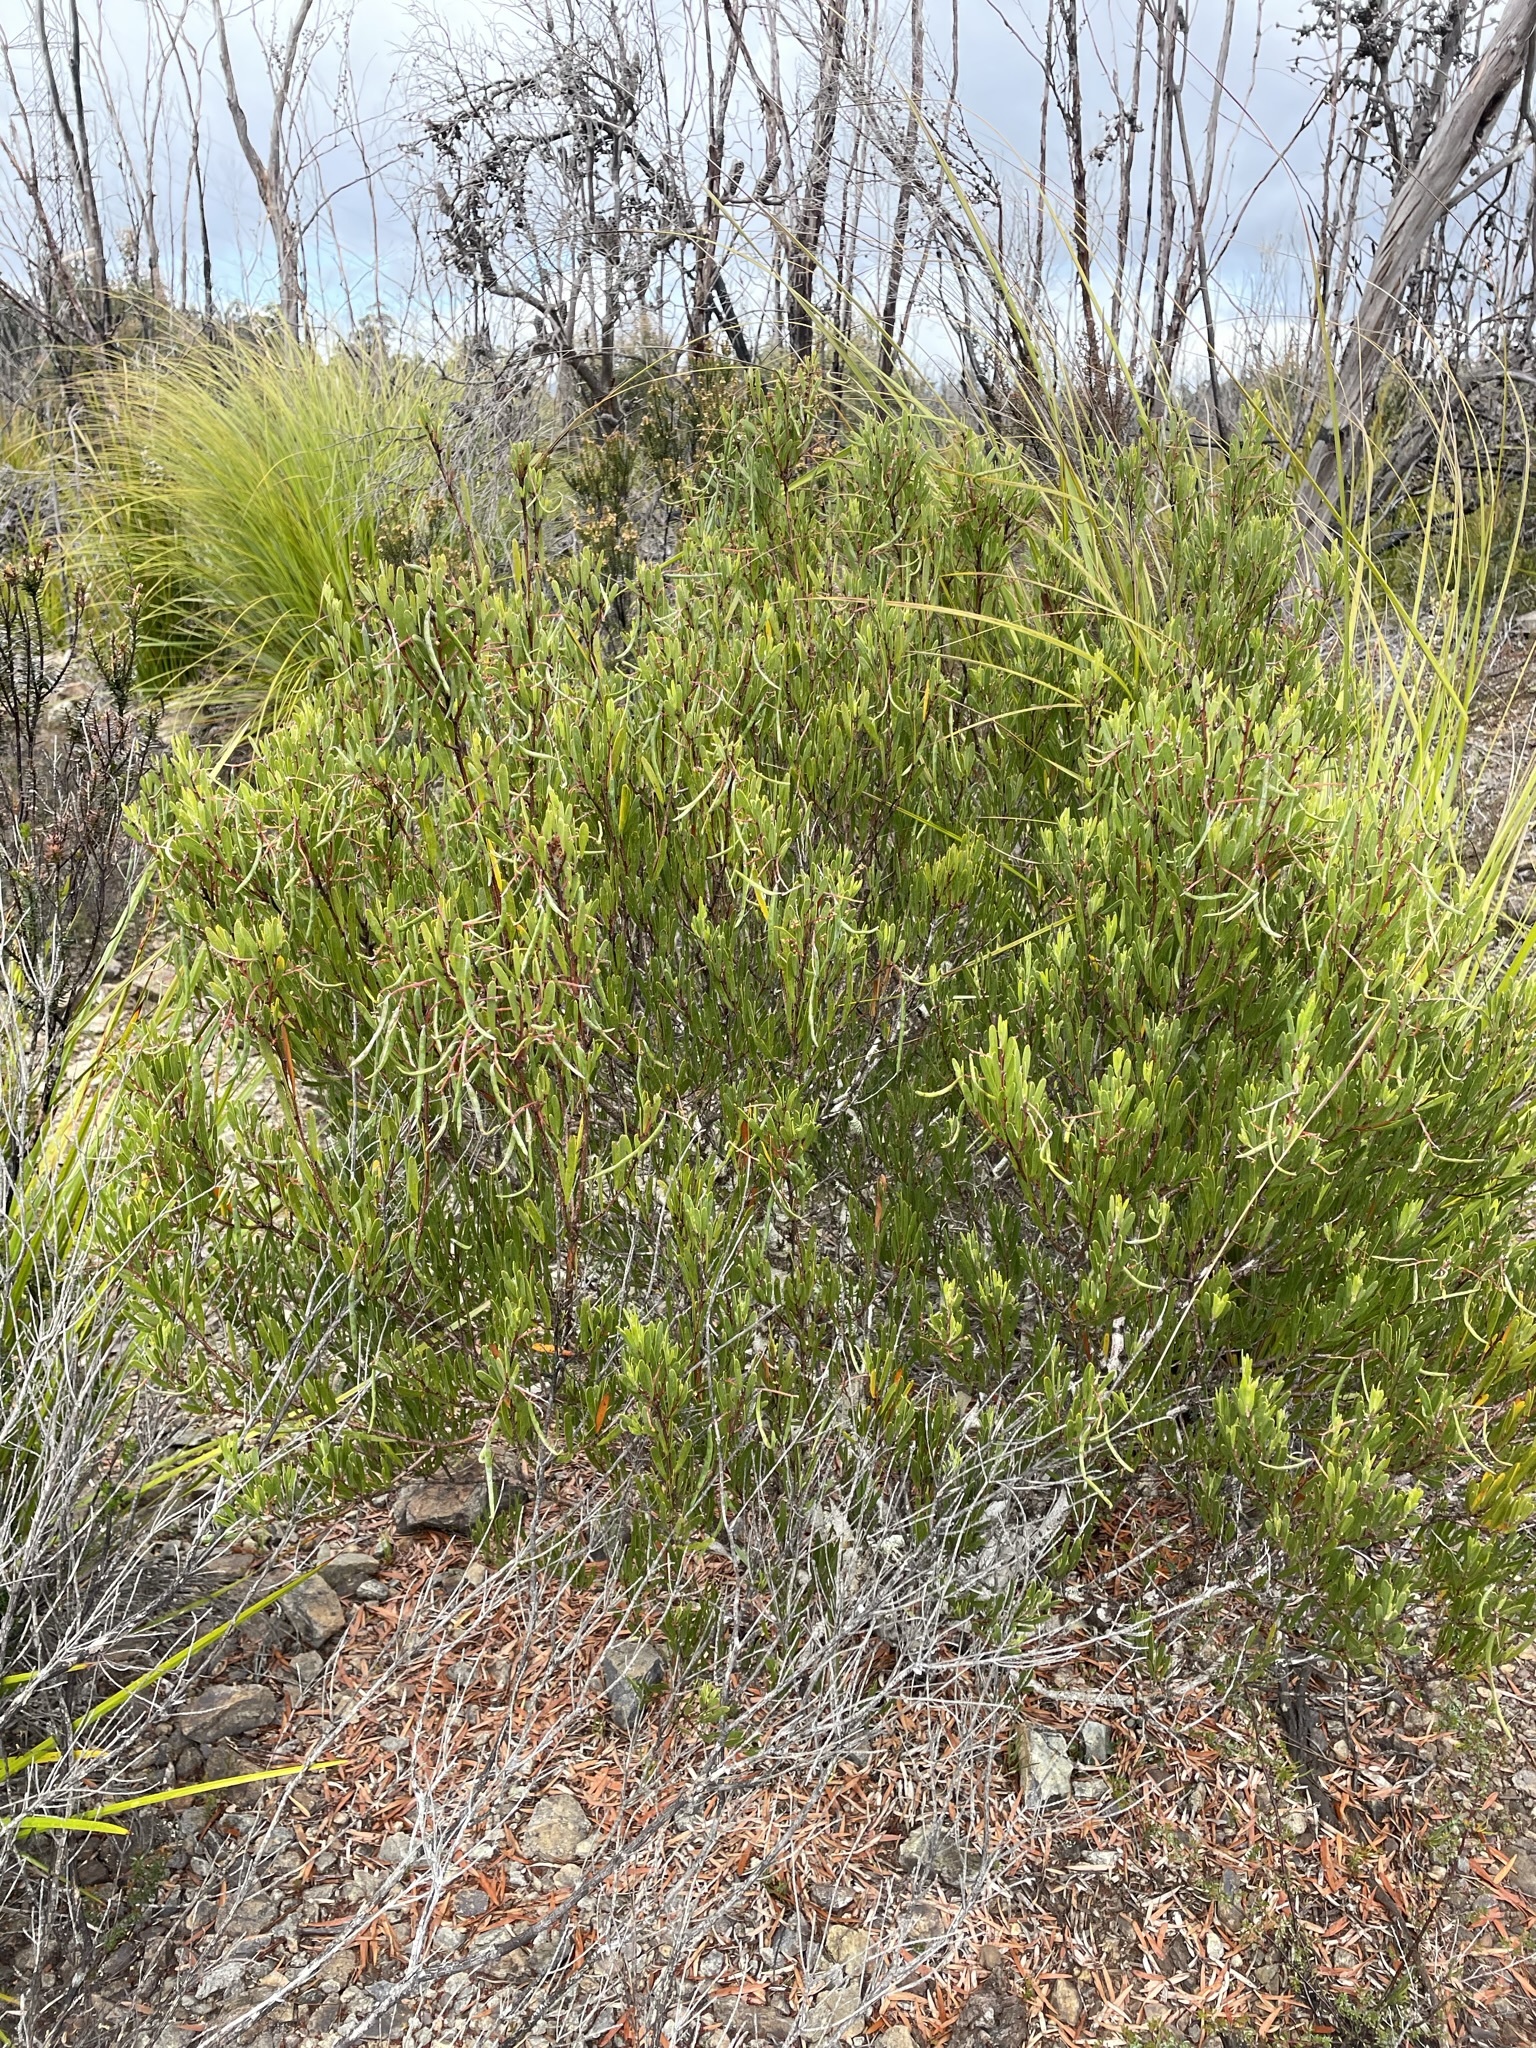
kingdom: Plantae
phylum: Tracheophyta
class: Magnoliopsida
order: Fabales
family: Fabaceae
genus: Acacia
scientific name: Acacia mucronata
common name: Variable sallow wattle
